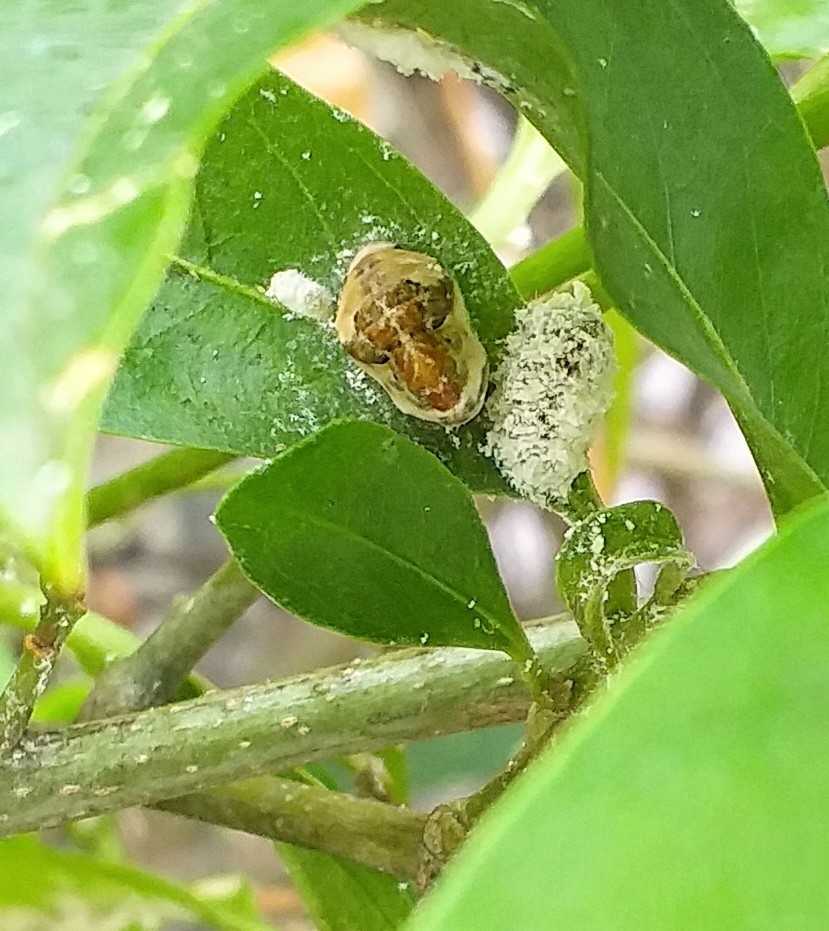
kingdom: Animalia
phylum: Arthropoda
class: Insecta
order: Lepidoptera
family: Lycaenidae
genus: Spalgis
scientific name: Spalgis epius
